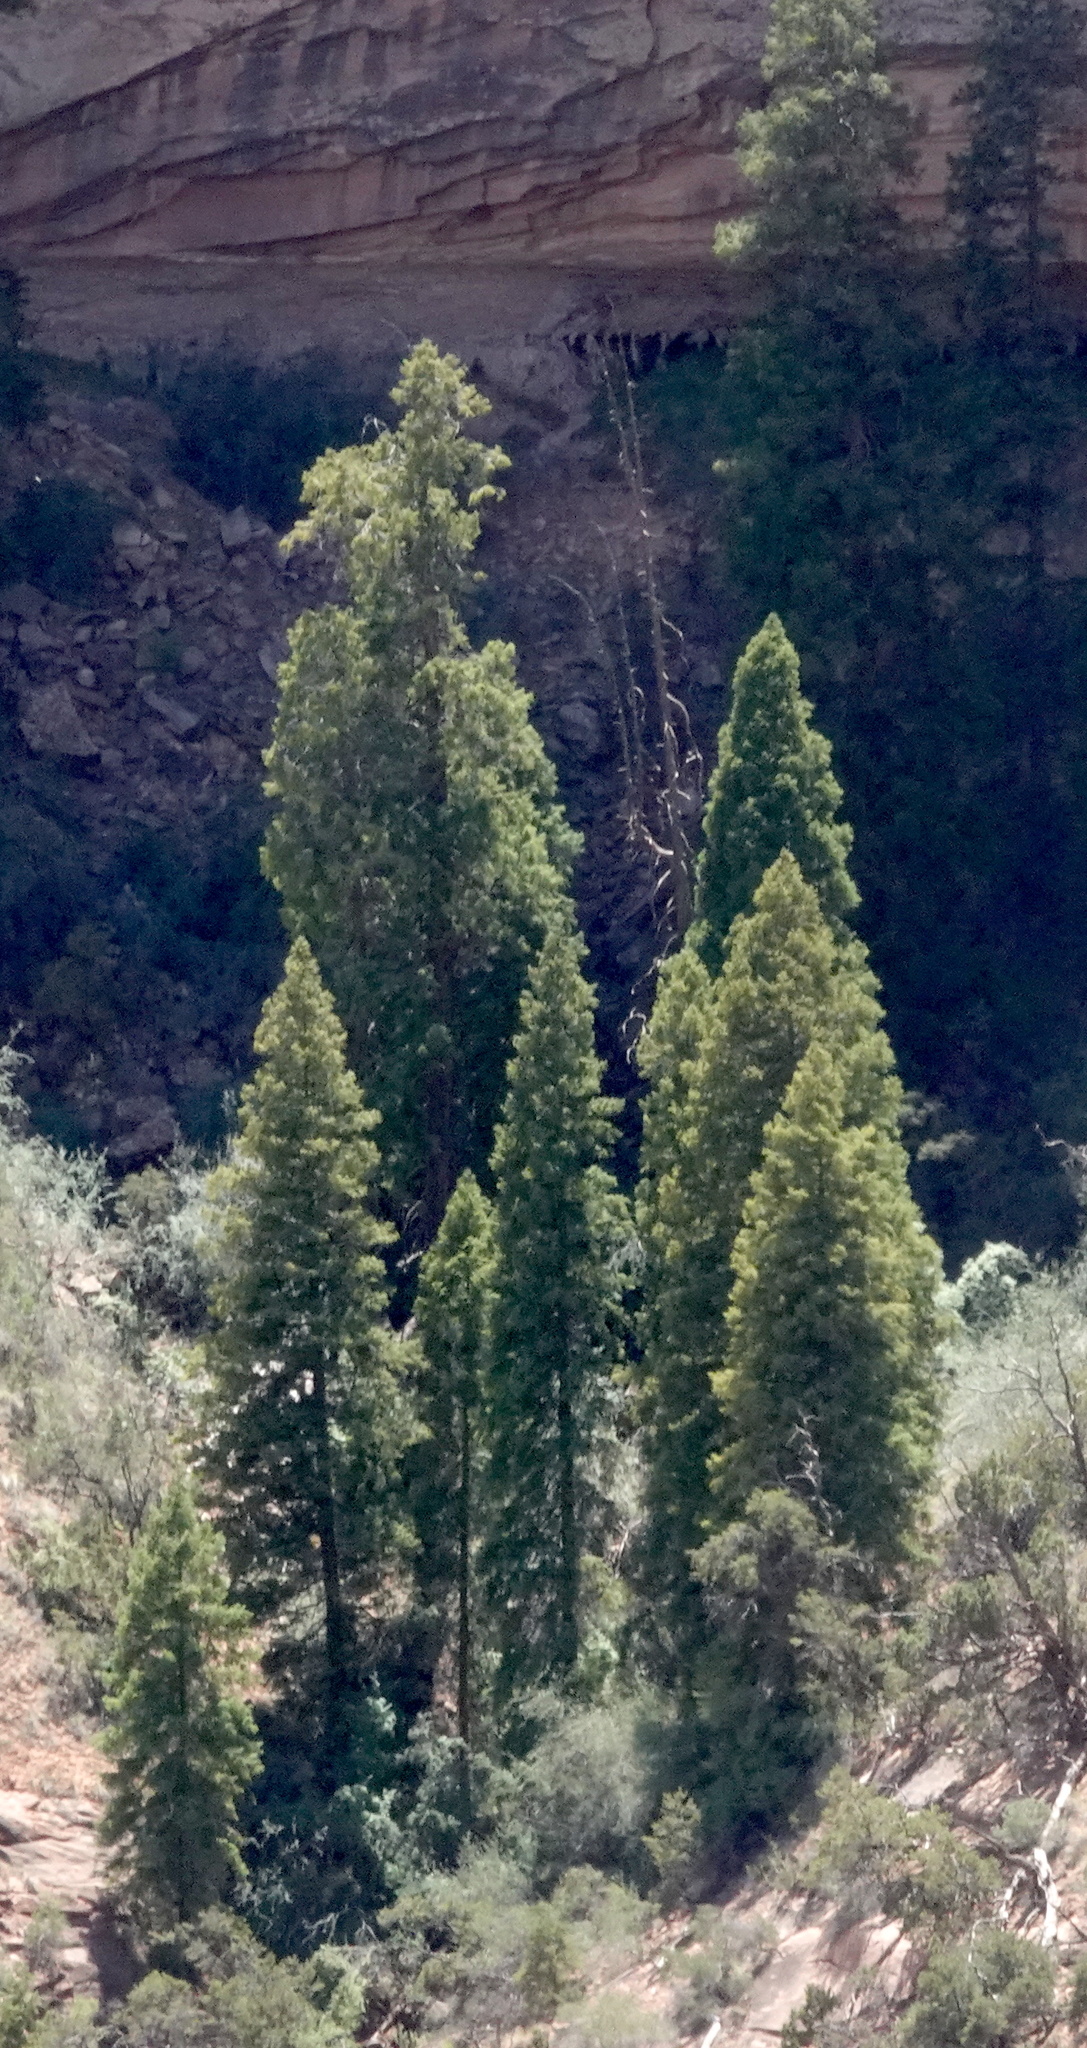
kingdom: Plantae
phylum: Tracheophyta
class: Pinopsida
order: Pinales
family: Pinaceae
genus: Pseudotsuga
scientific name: Pseudotsuga menziesii
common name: Douglas fir
